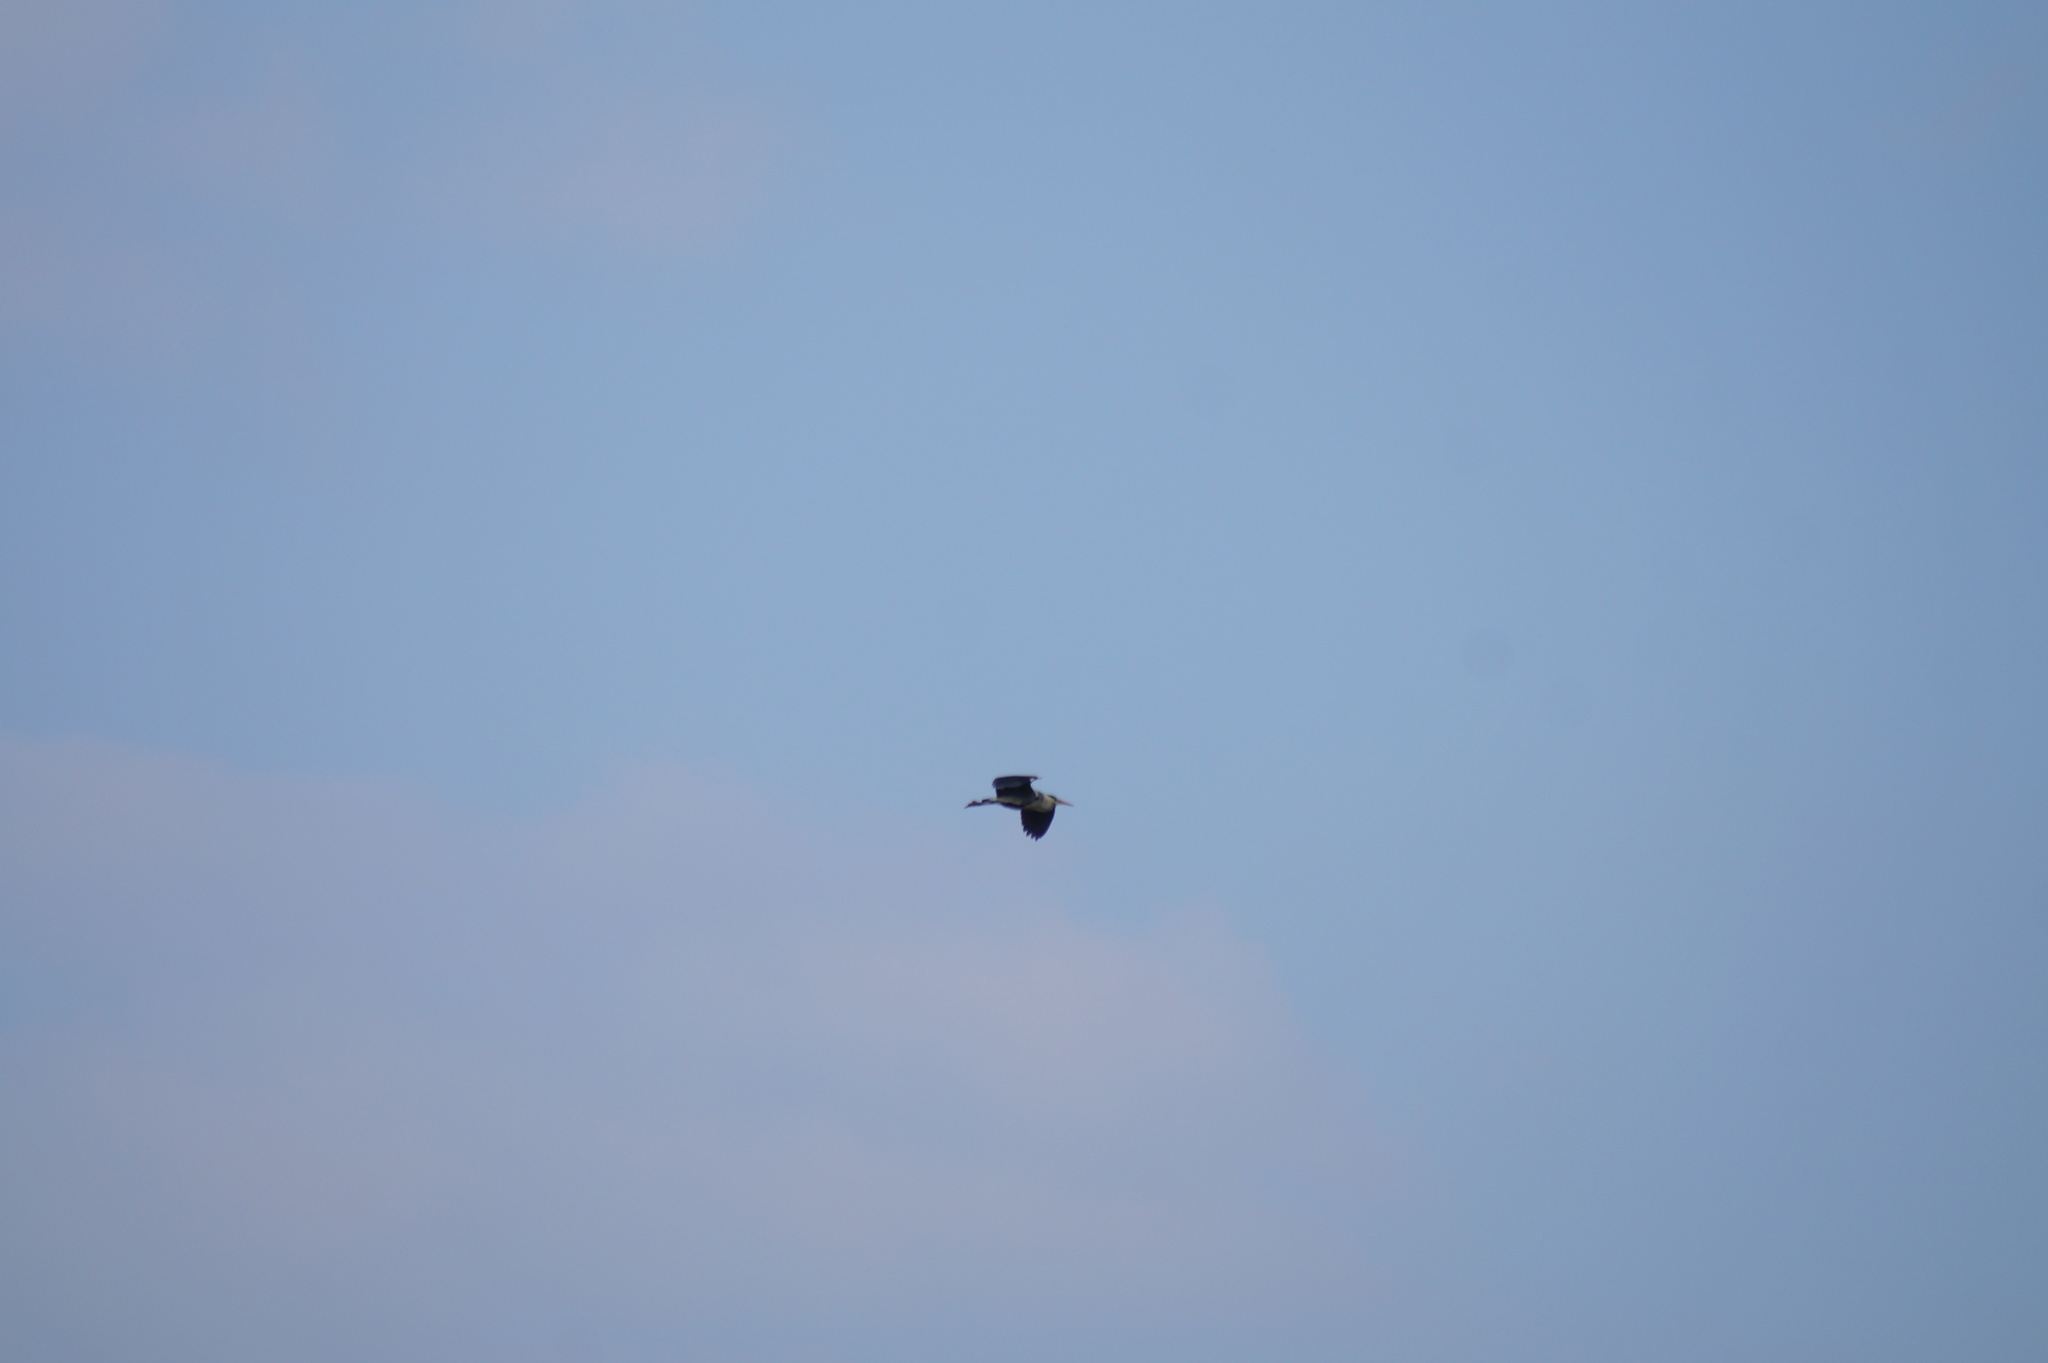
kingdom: Animalia
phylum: Chordata
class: Aves
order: Pelecaniformes
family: Ardeidae
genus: Ardea
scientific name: Ardea cinerea
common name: Grey heron
